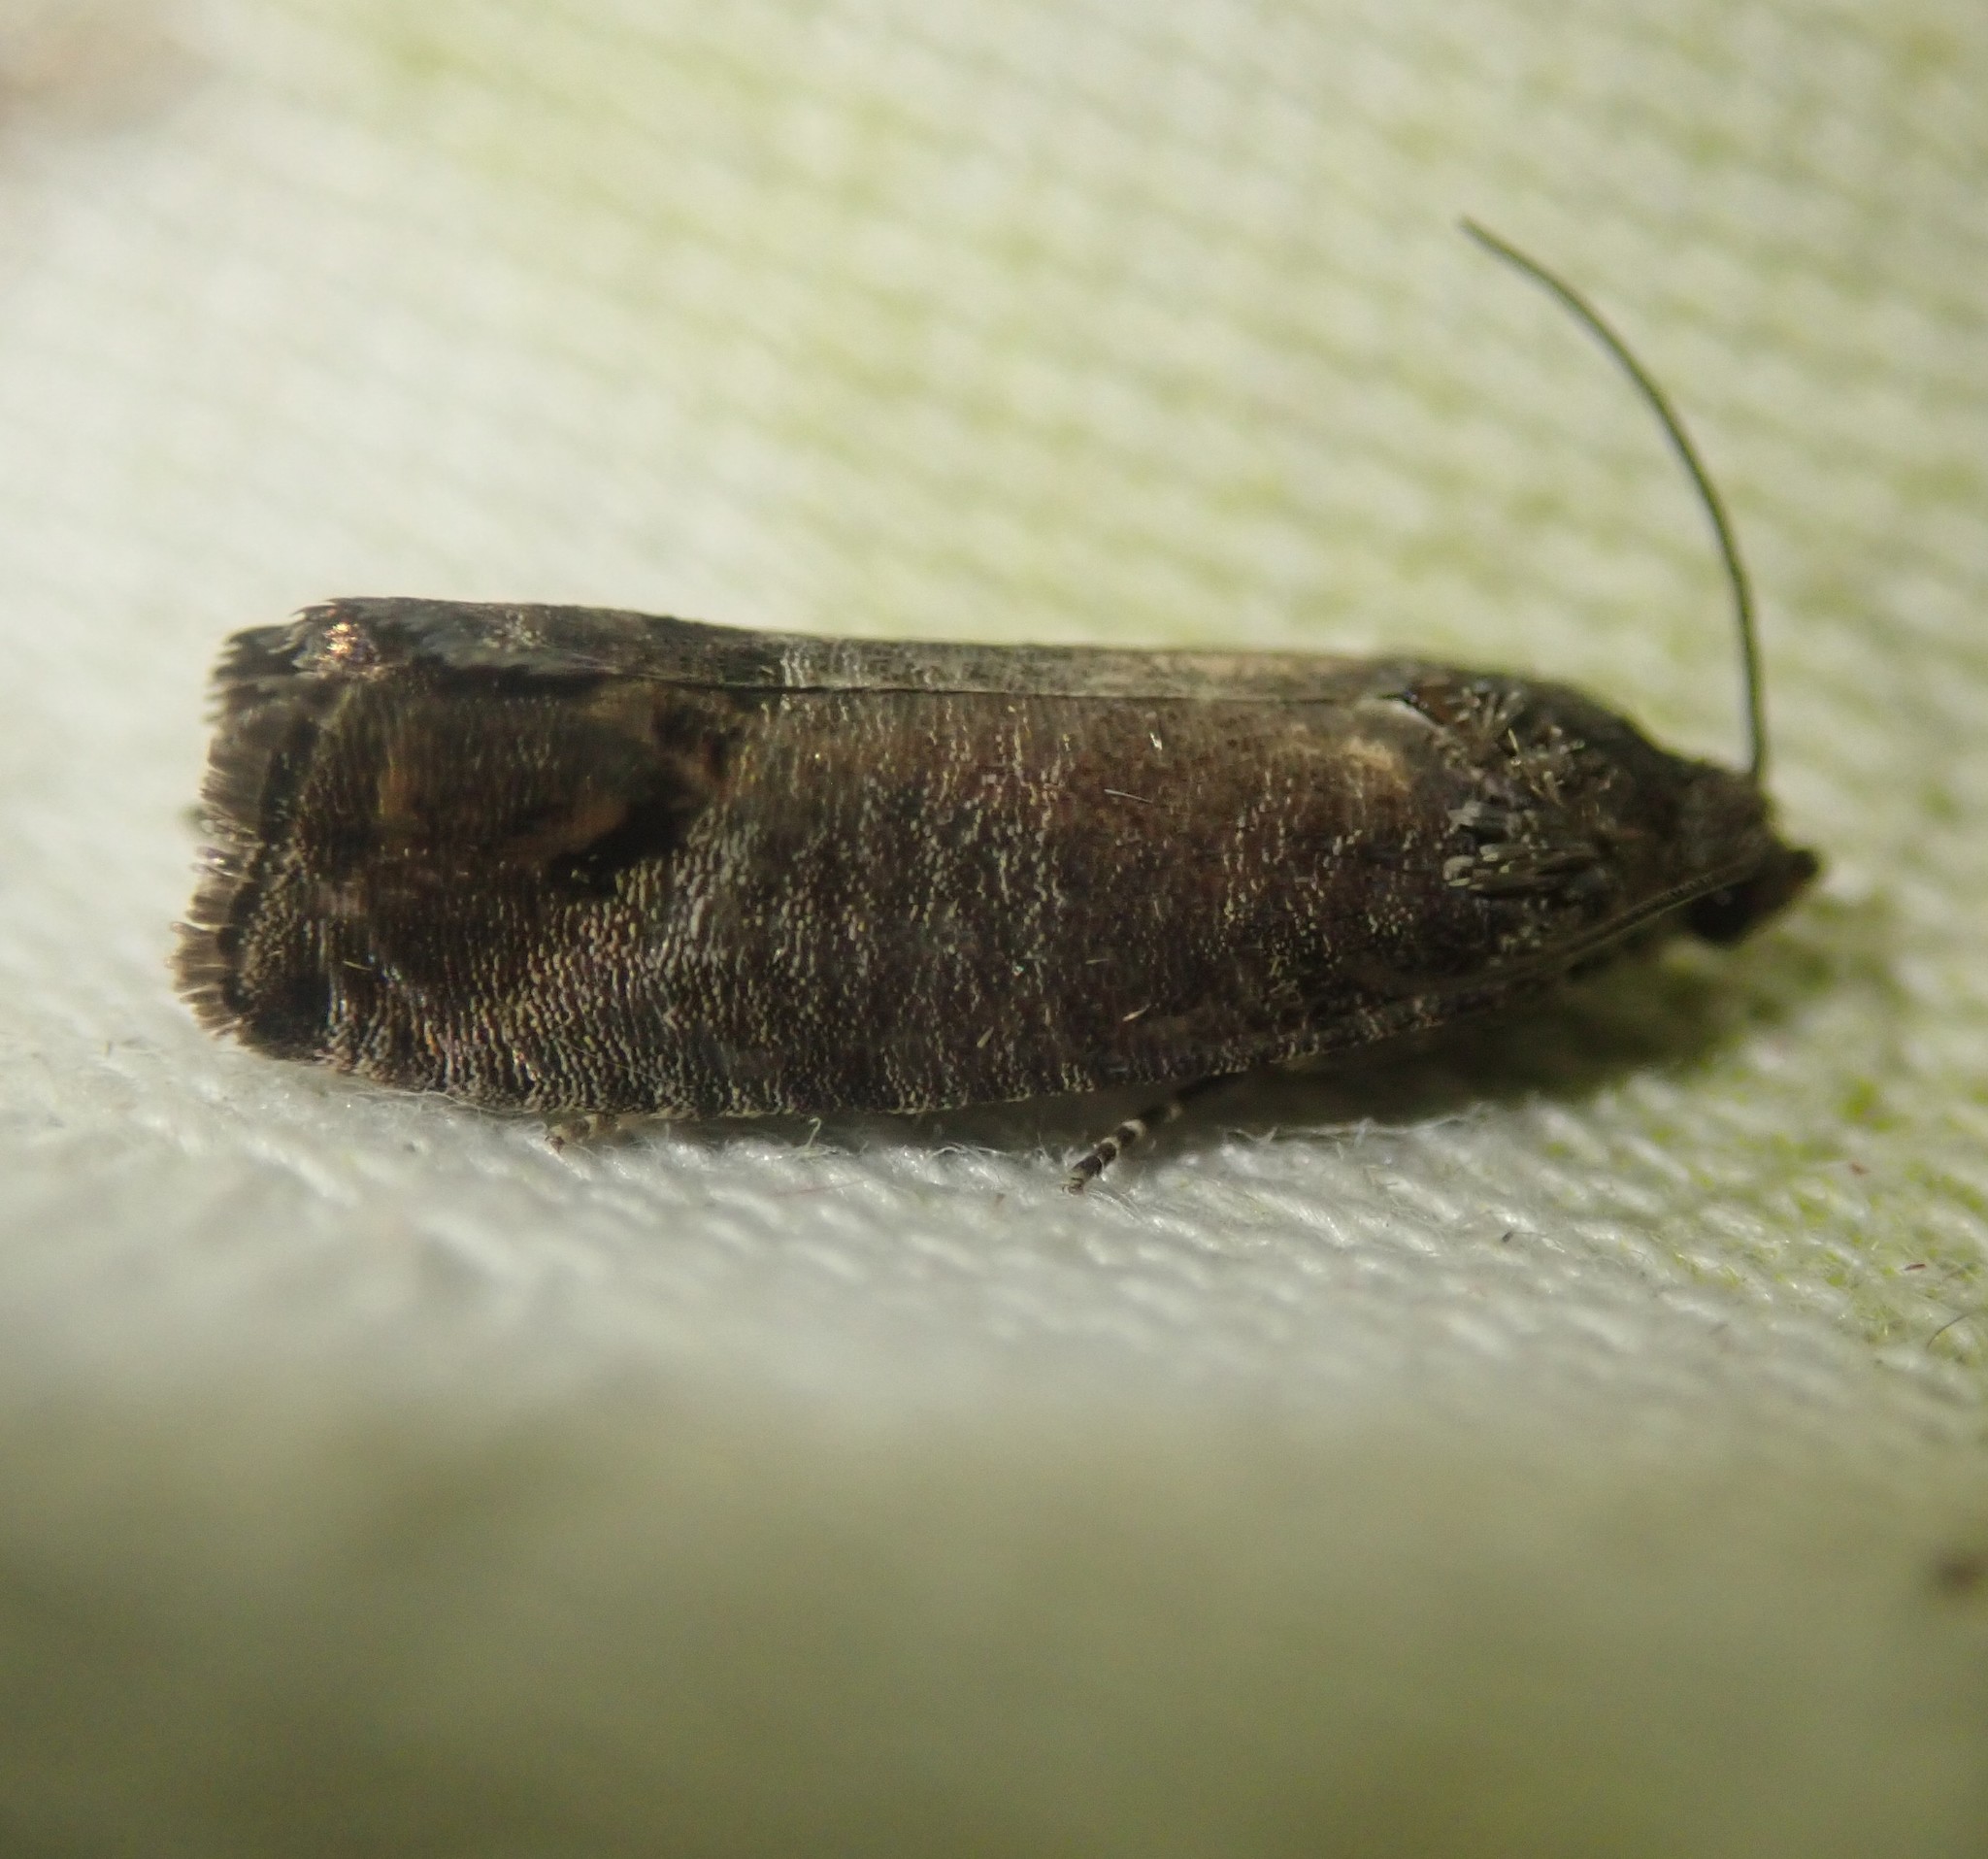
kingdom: Animalia
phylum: Arthropoda
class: Insecta
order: Lepidoptera
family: Tortricidae
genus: Cydia
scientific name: Cydia pomonella
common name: Codling moth
